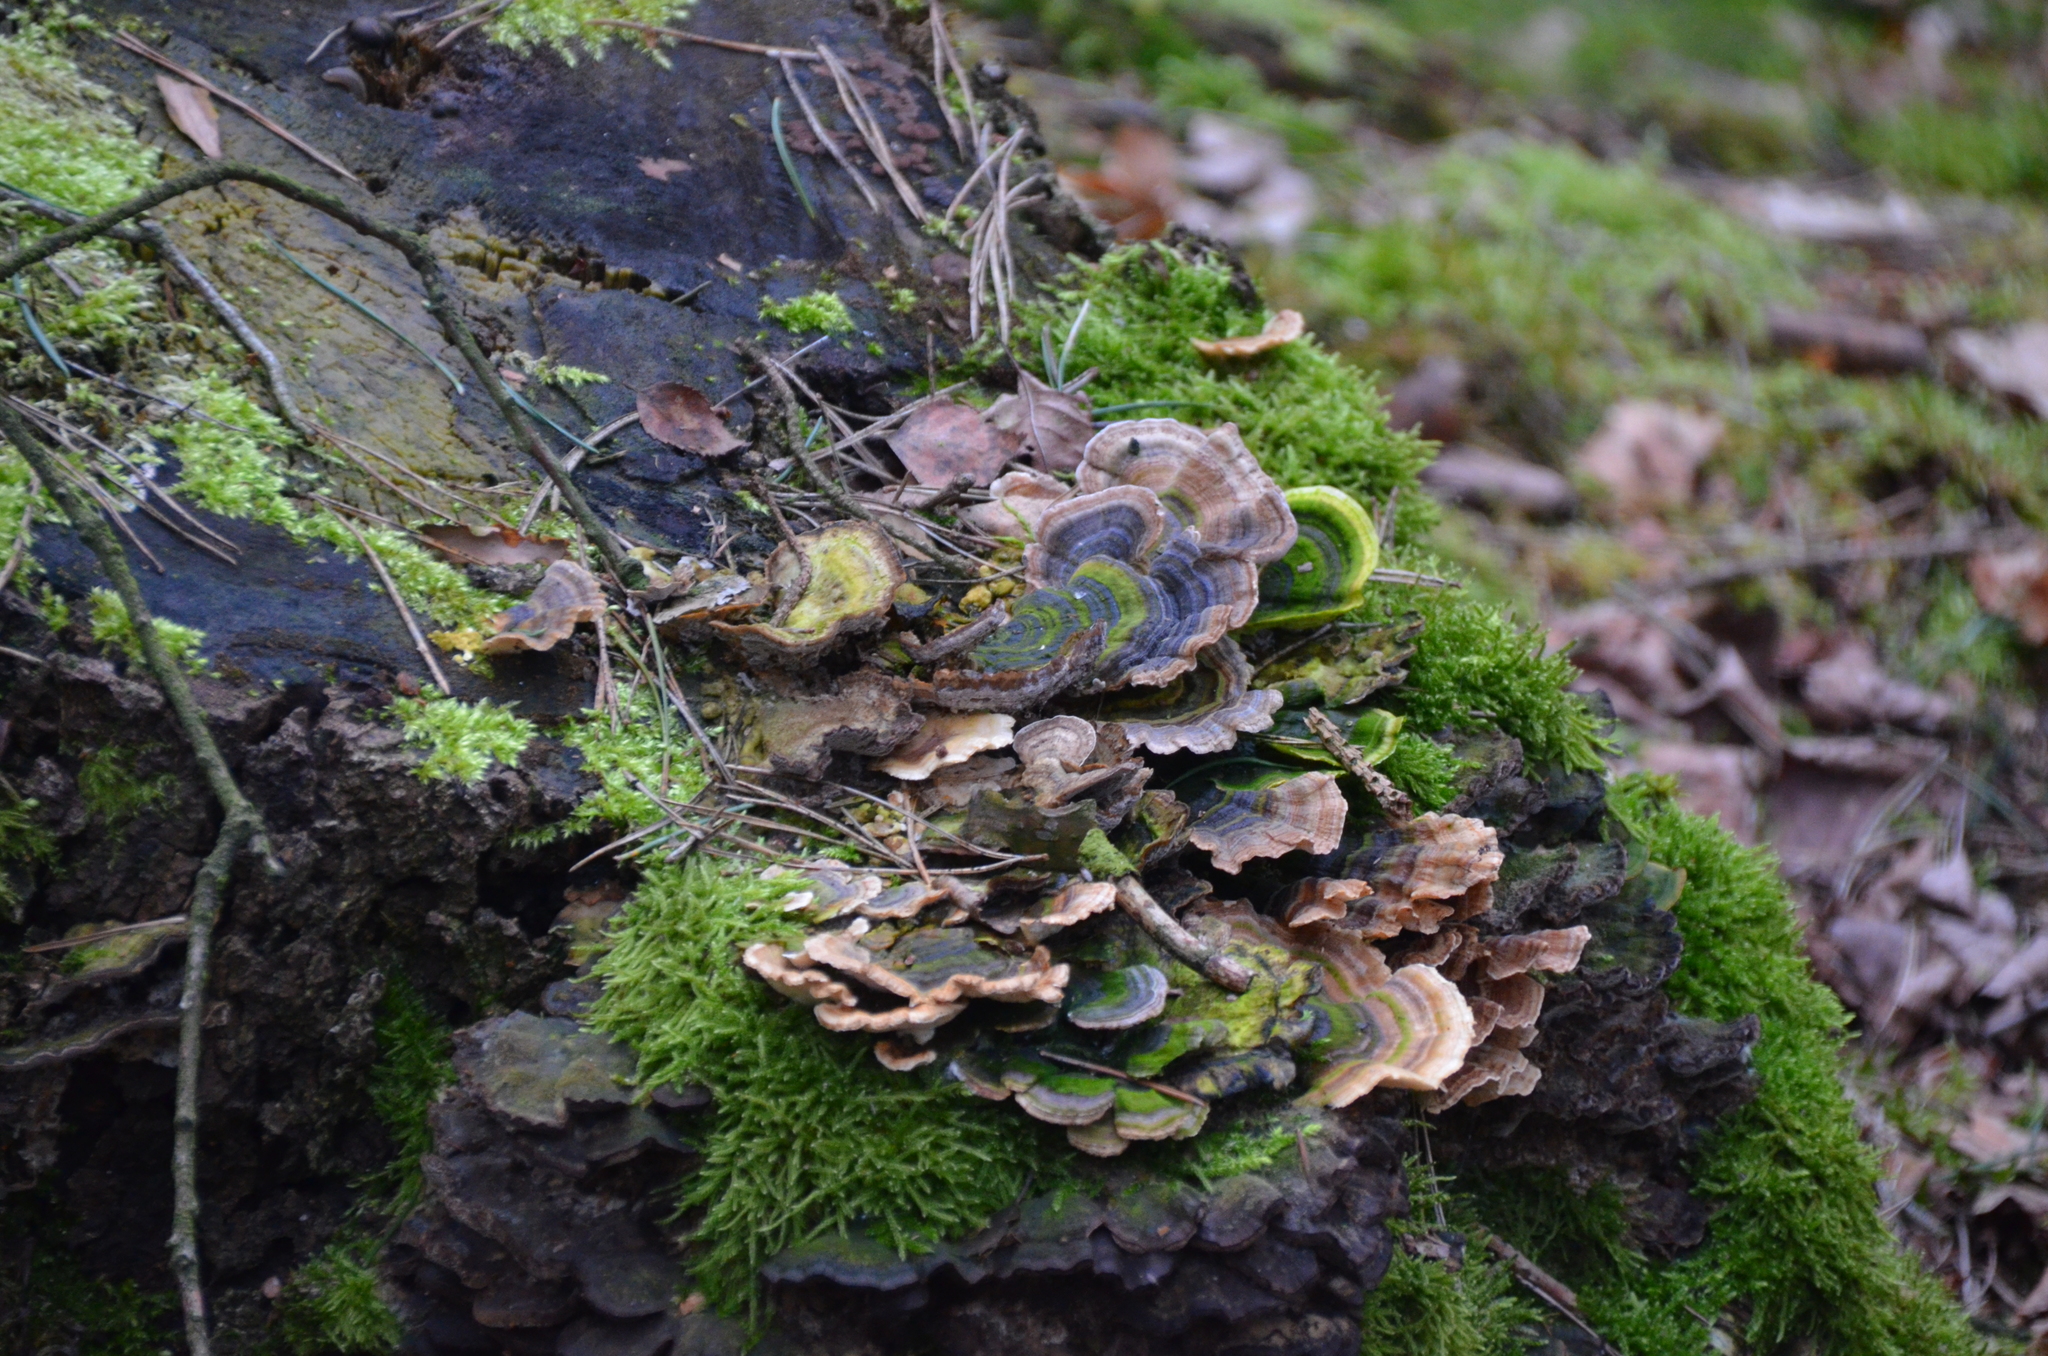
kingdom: Fungi
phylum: Basidiomycota
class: Agaricomycetes
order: Polyporales
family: Polyporaceae
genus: Trametes
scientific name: Trametes versicolor
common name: Turkeytail
